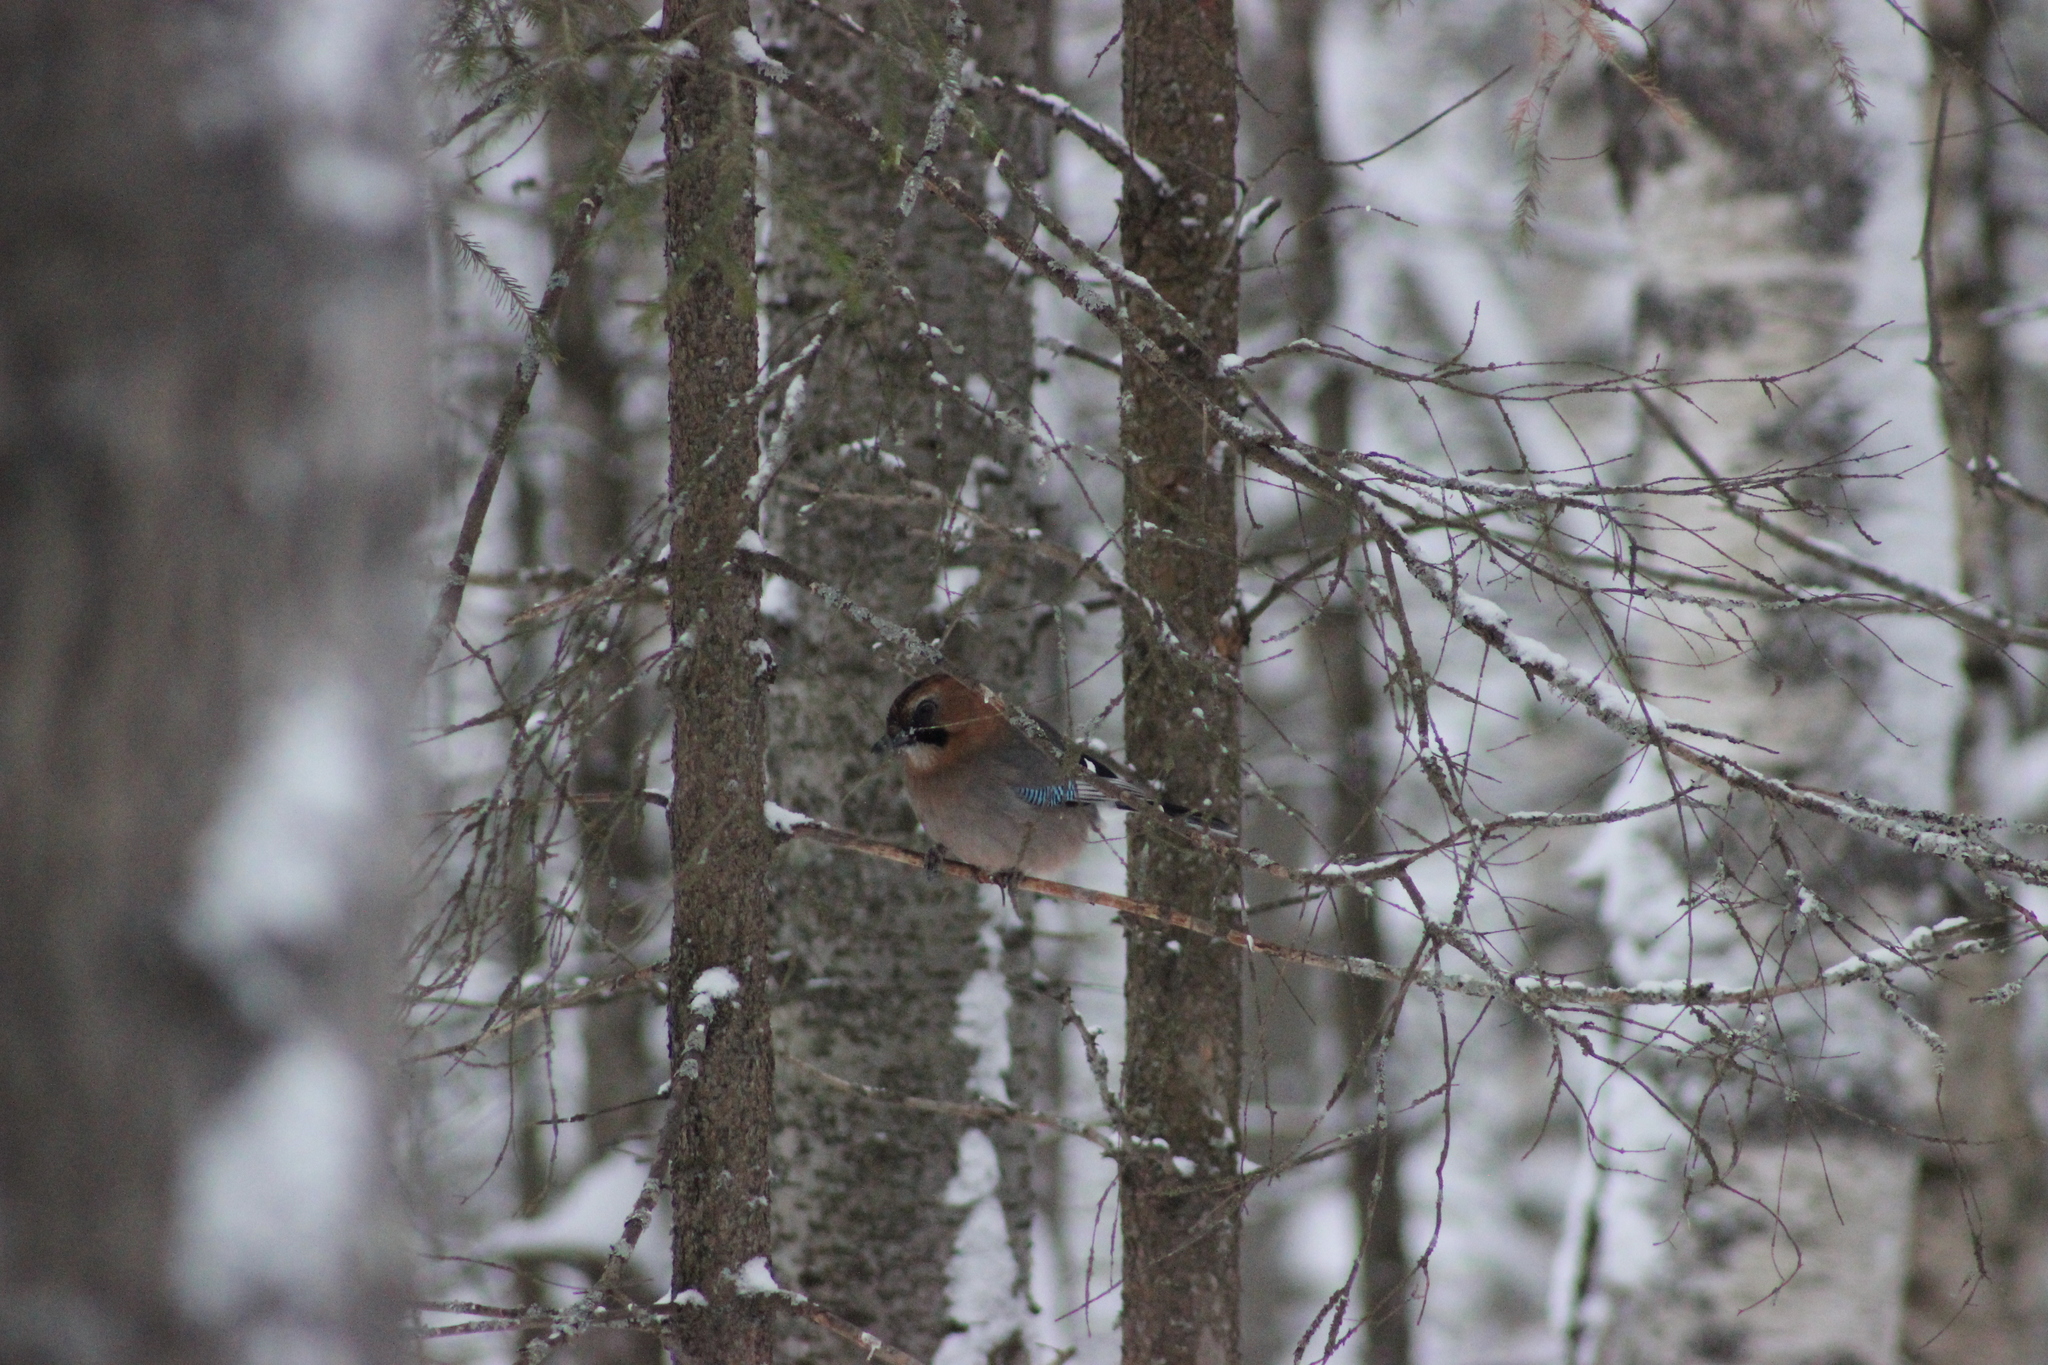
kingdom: Animalia
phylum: Chordata
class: Aves
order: Passeriformes
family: Corvidae
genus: Garrulus
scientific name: Garrulus glandarius
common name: Eurasian jay
